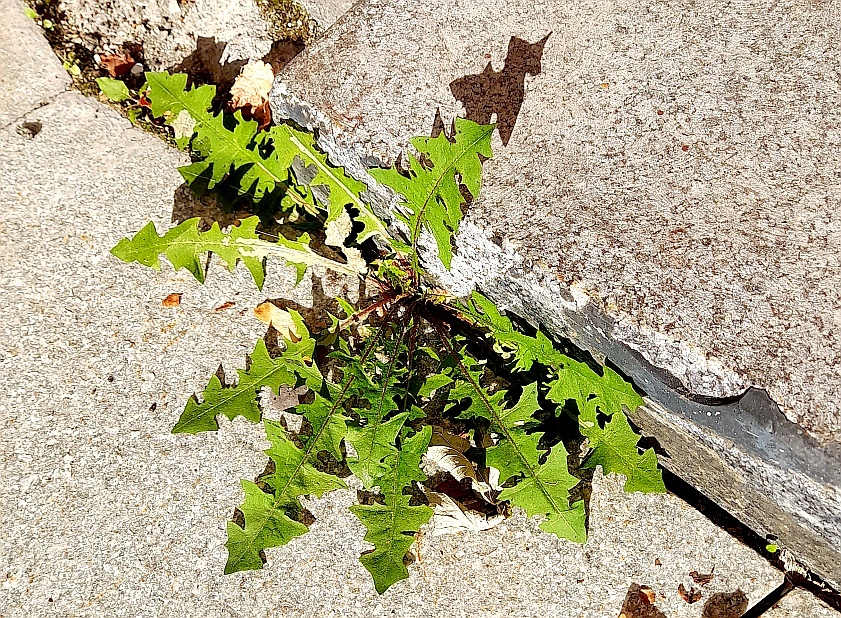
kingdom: Plantae
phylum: Tracheophyta
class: Magnoliopsida
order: Asterales
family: Asteraceae
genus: Taraxacum
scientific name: Taraxacum officinale
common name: Common dandelion
